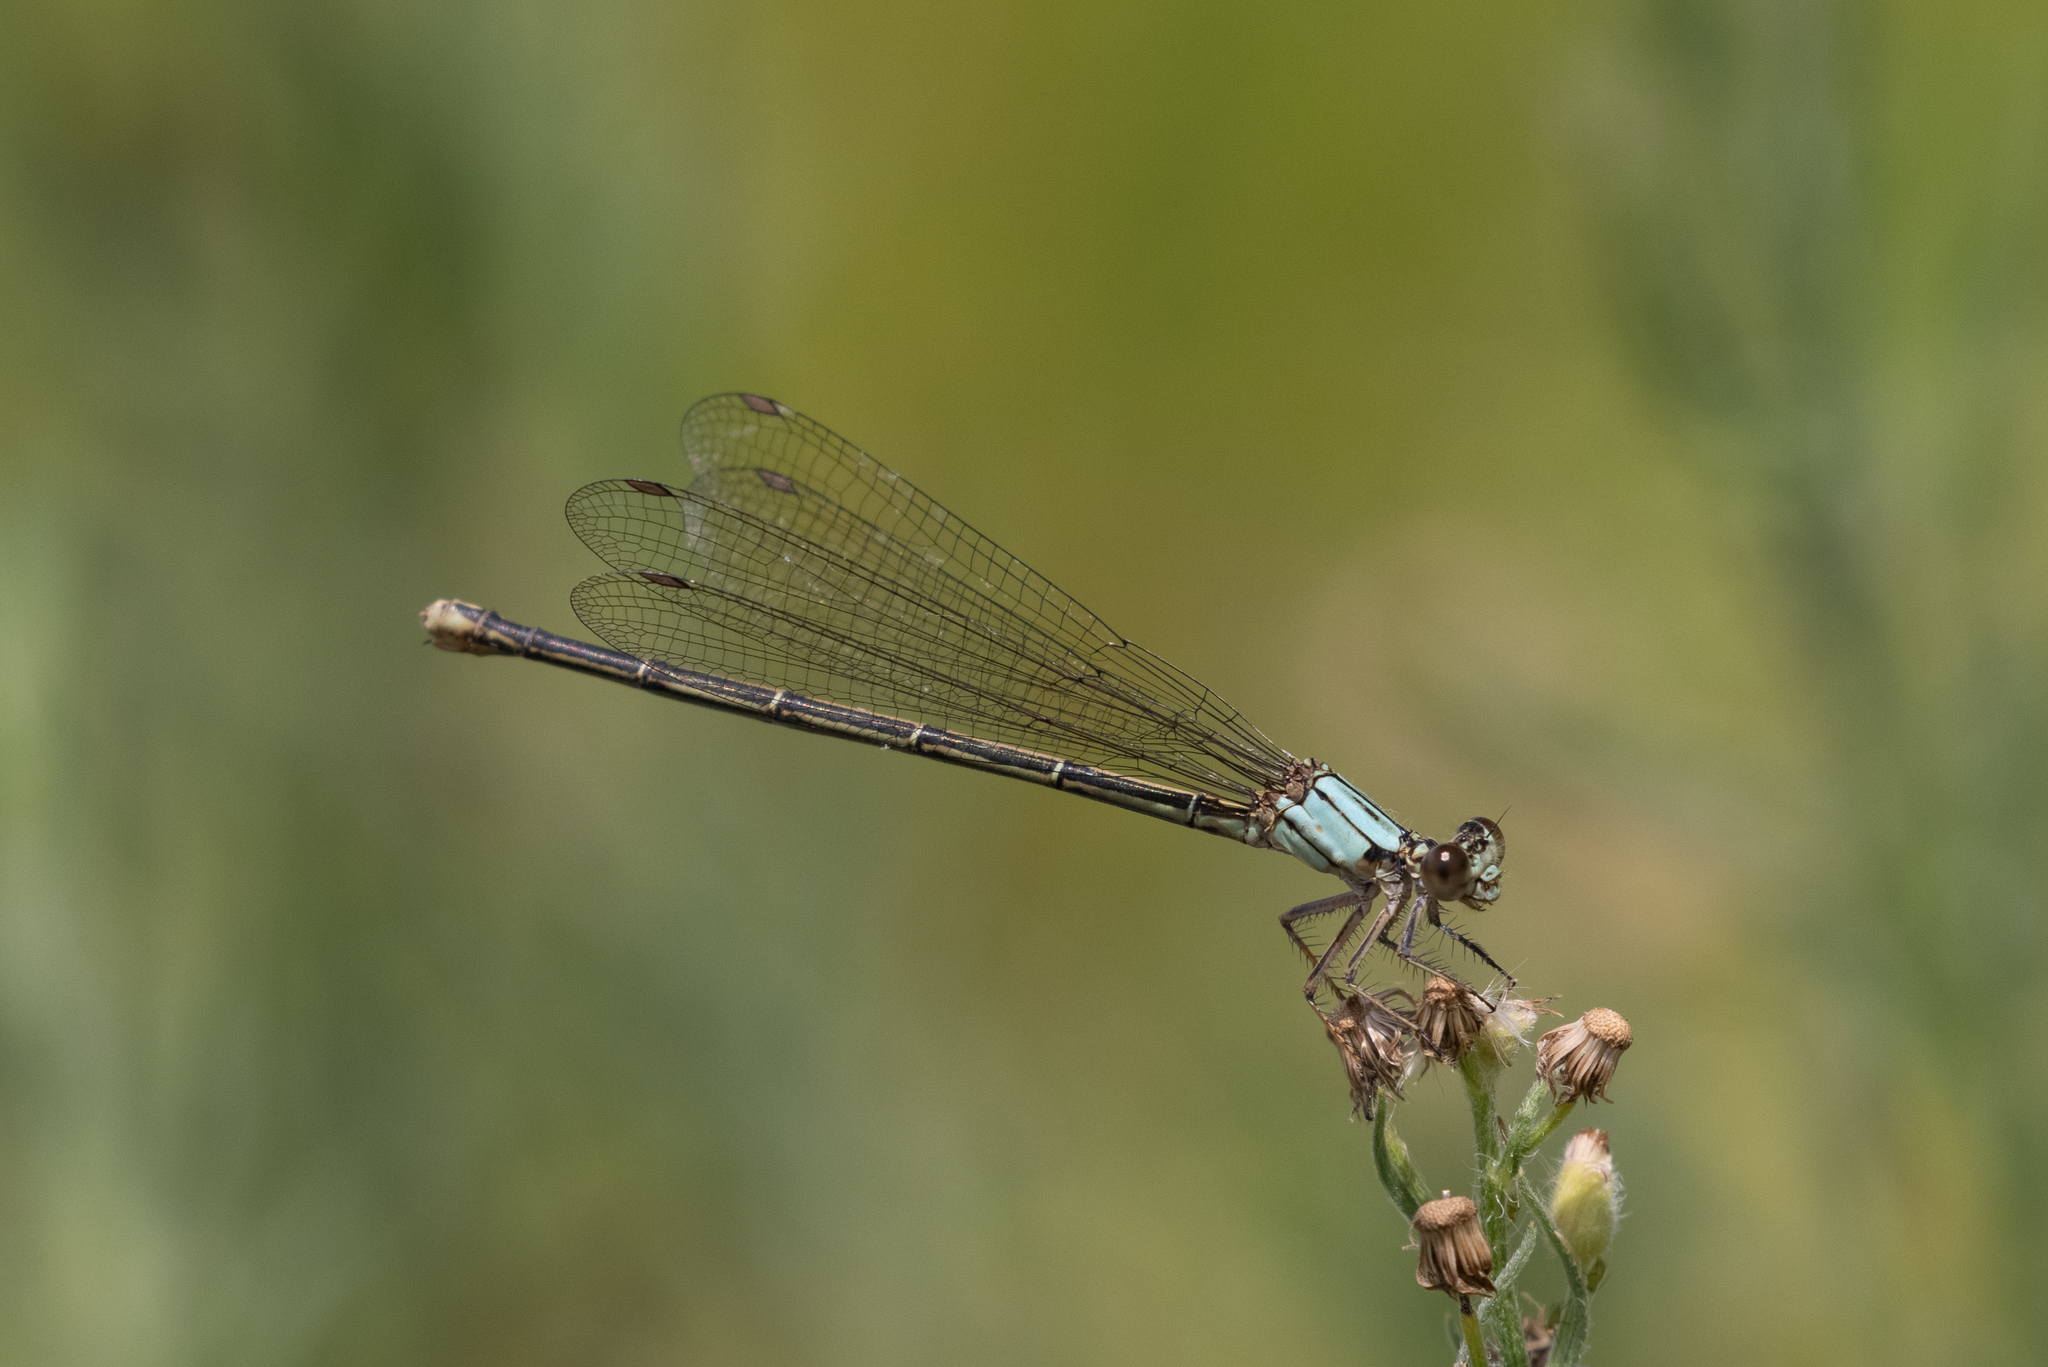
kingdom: Animalia
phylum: Arthropoda
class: Insecta
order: Odonata
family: Coenagrionidae
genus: Argia
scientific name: Argia moesta
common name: Powdered dancer
